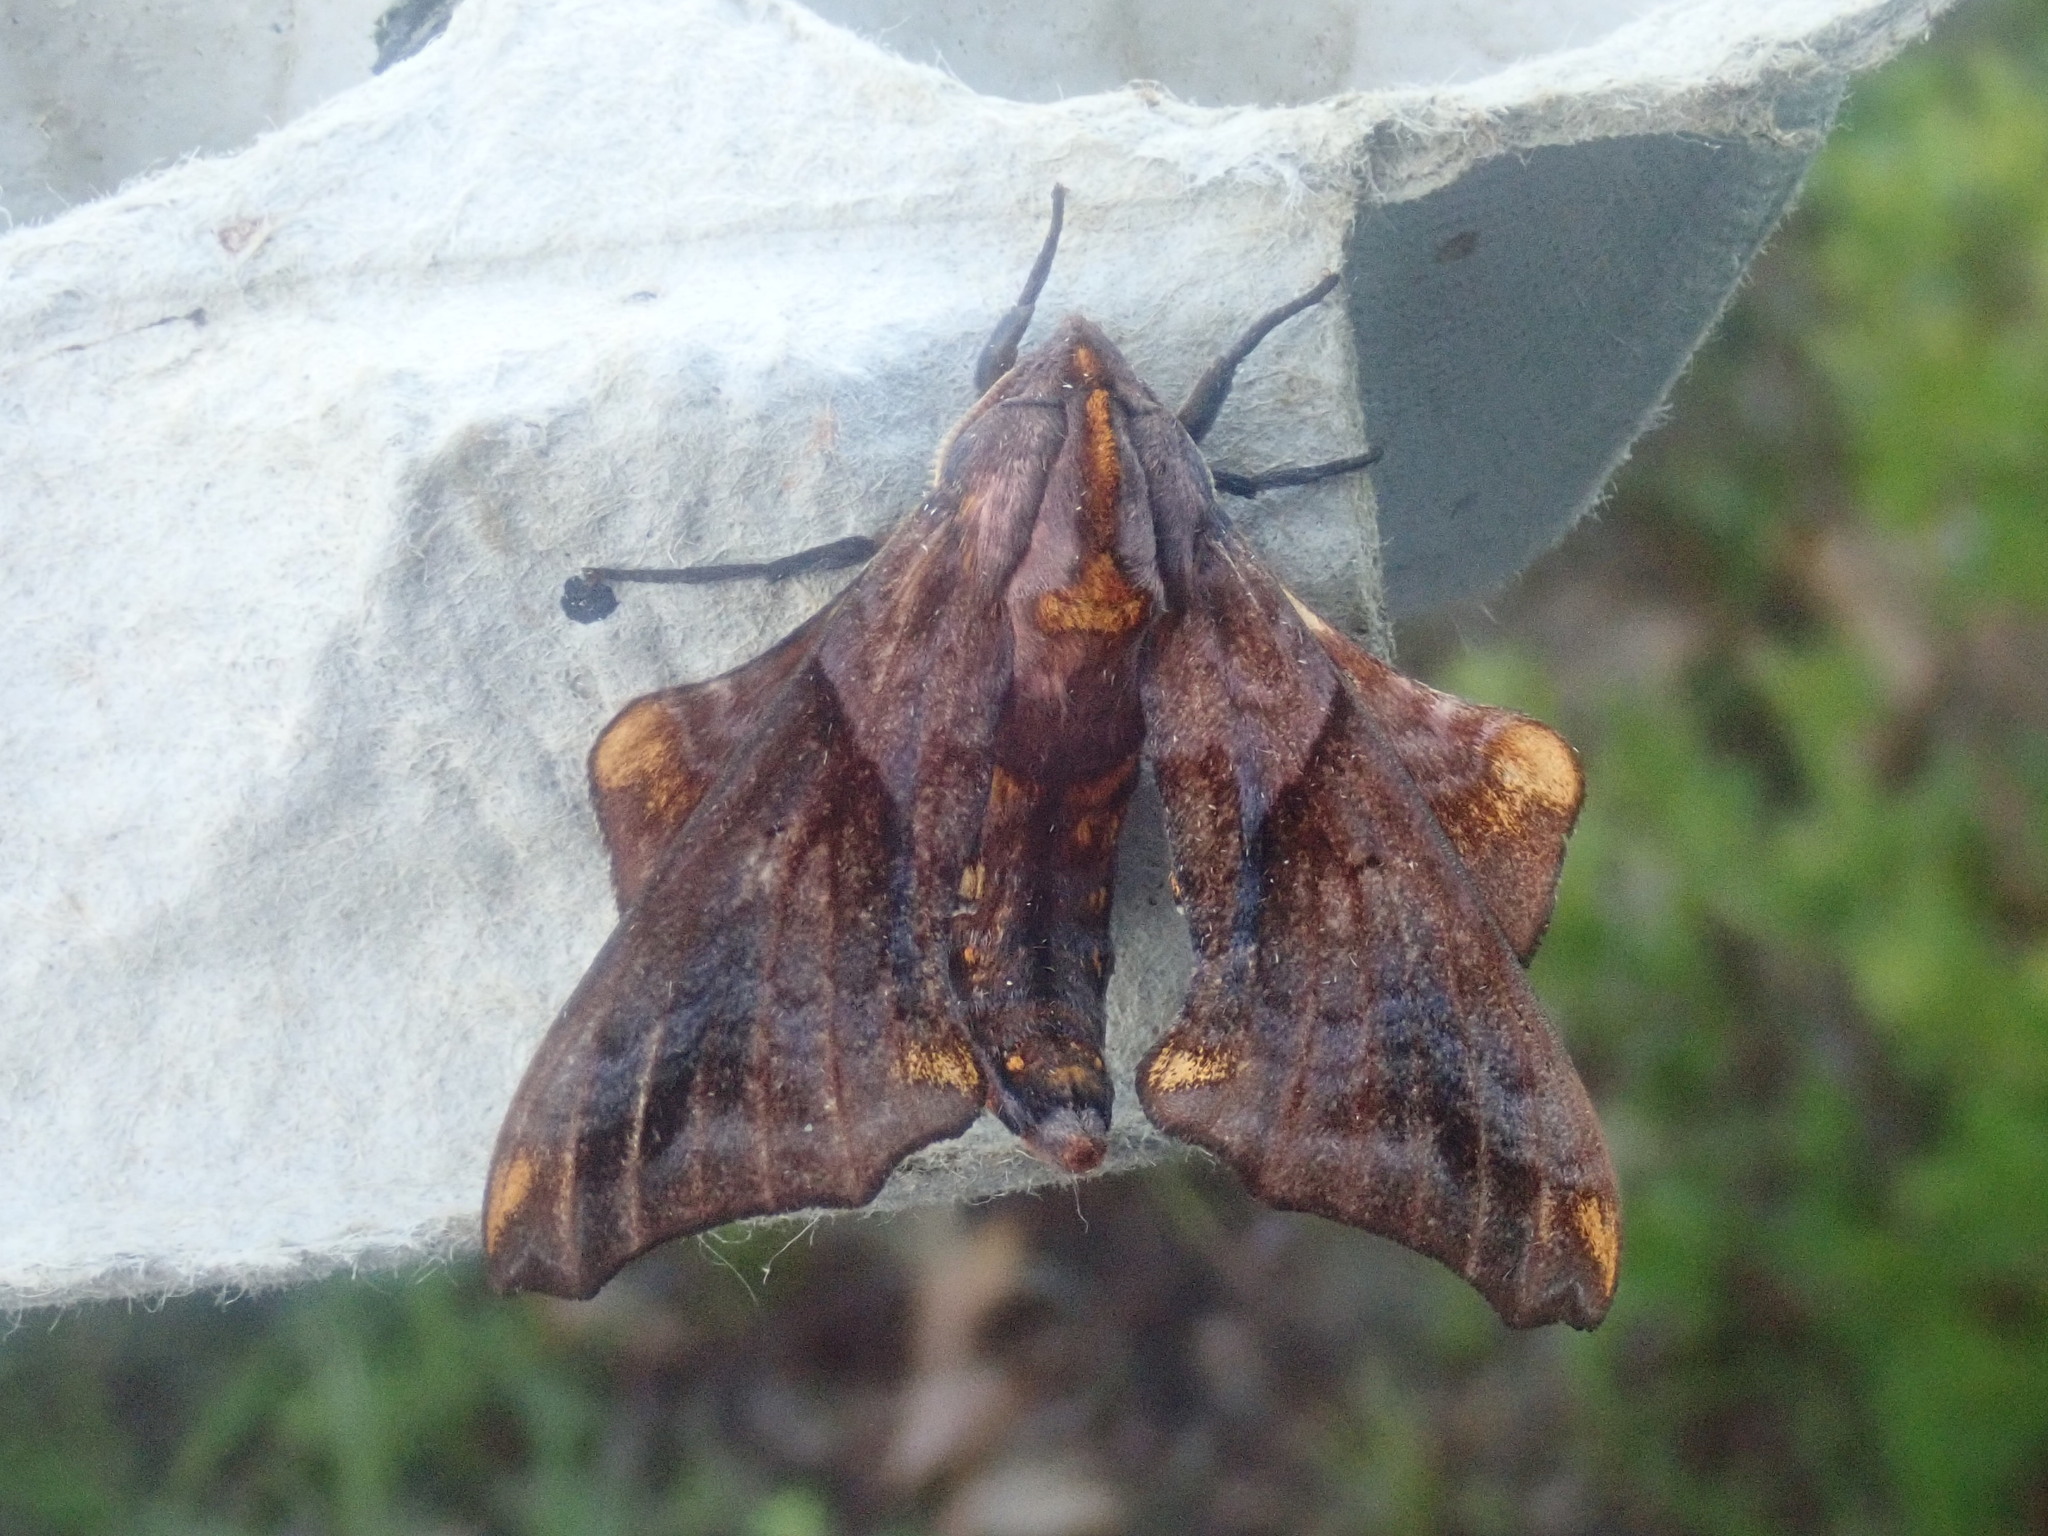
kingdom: Animalia
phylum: Arthropoda
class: Insecta
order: Lepidoptera
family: Sphingidae
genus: Paonias
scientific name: Paonias myops
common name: Small-eyed sphinx
